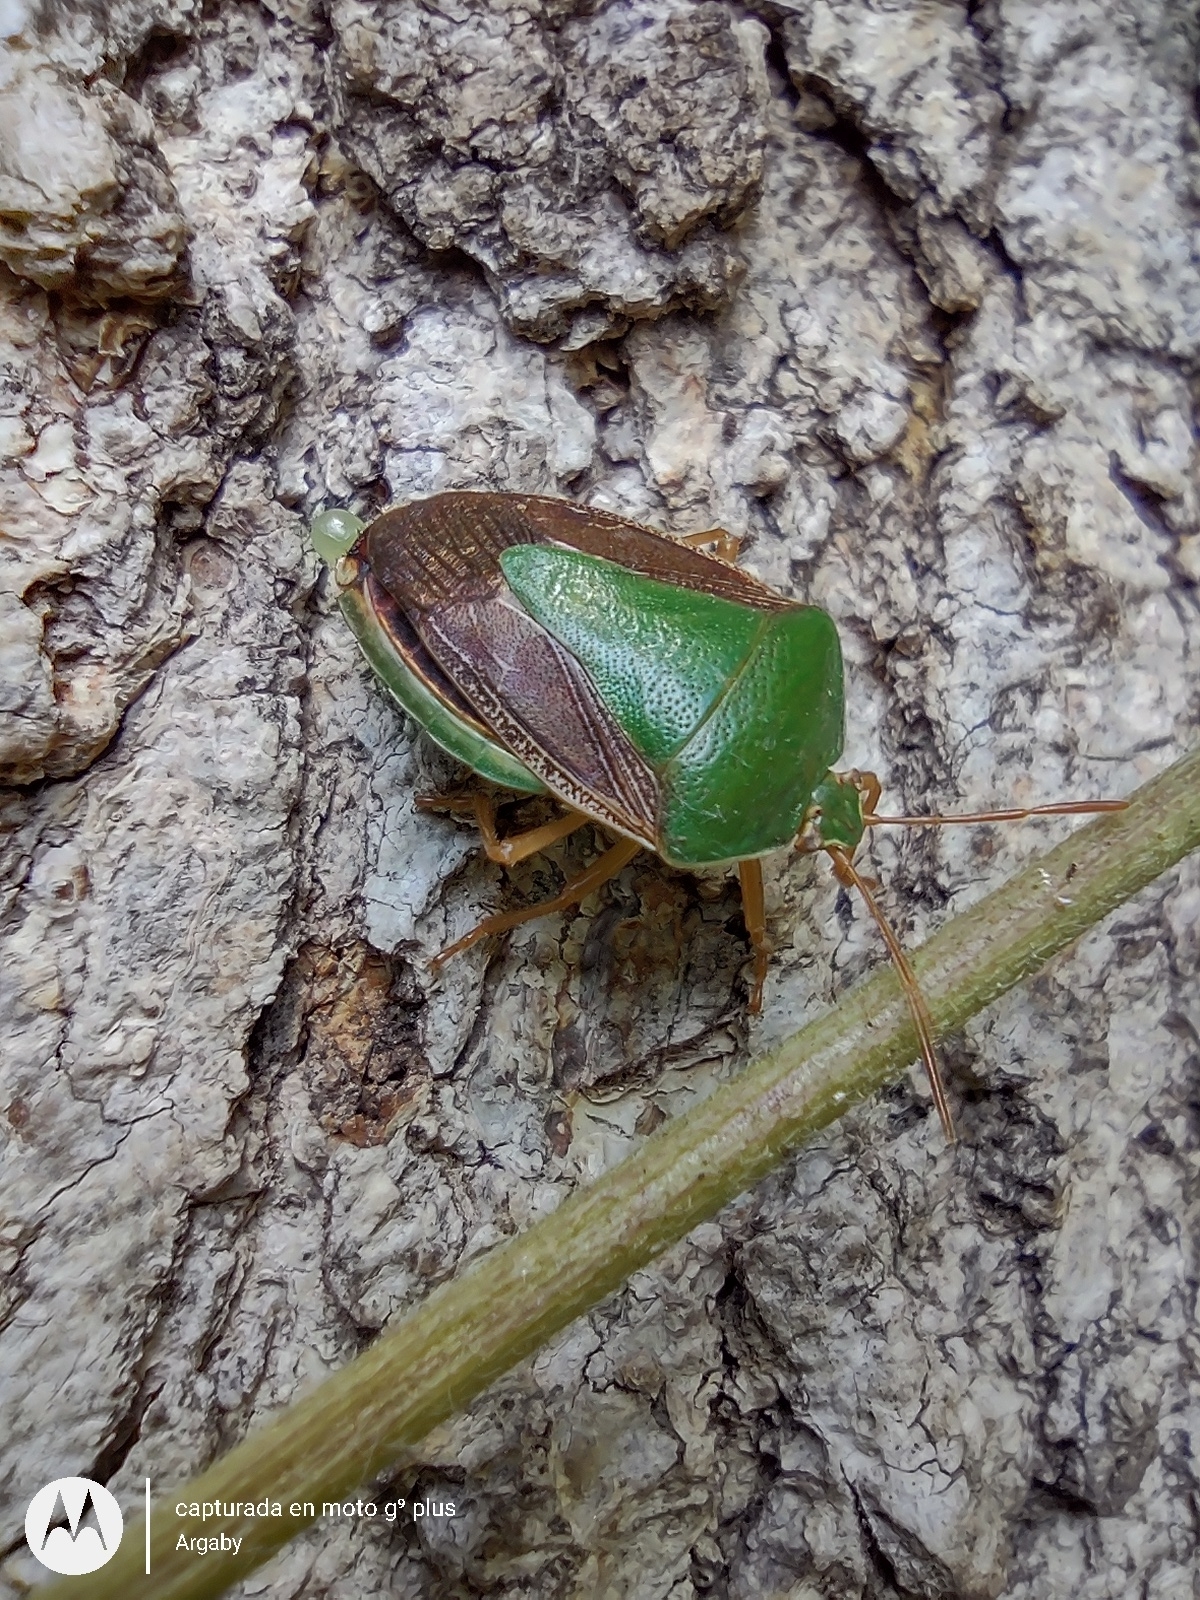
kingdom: Animalia
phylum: Arthropoda
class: Insecta
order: Hemiptera
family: Pentatomidae
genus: Edessa
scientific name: Edessa meditabunda
